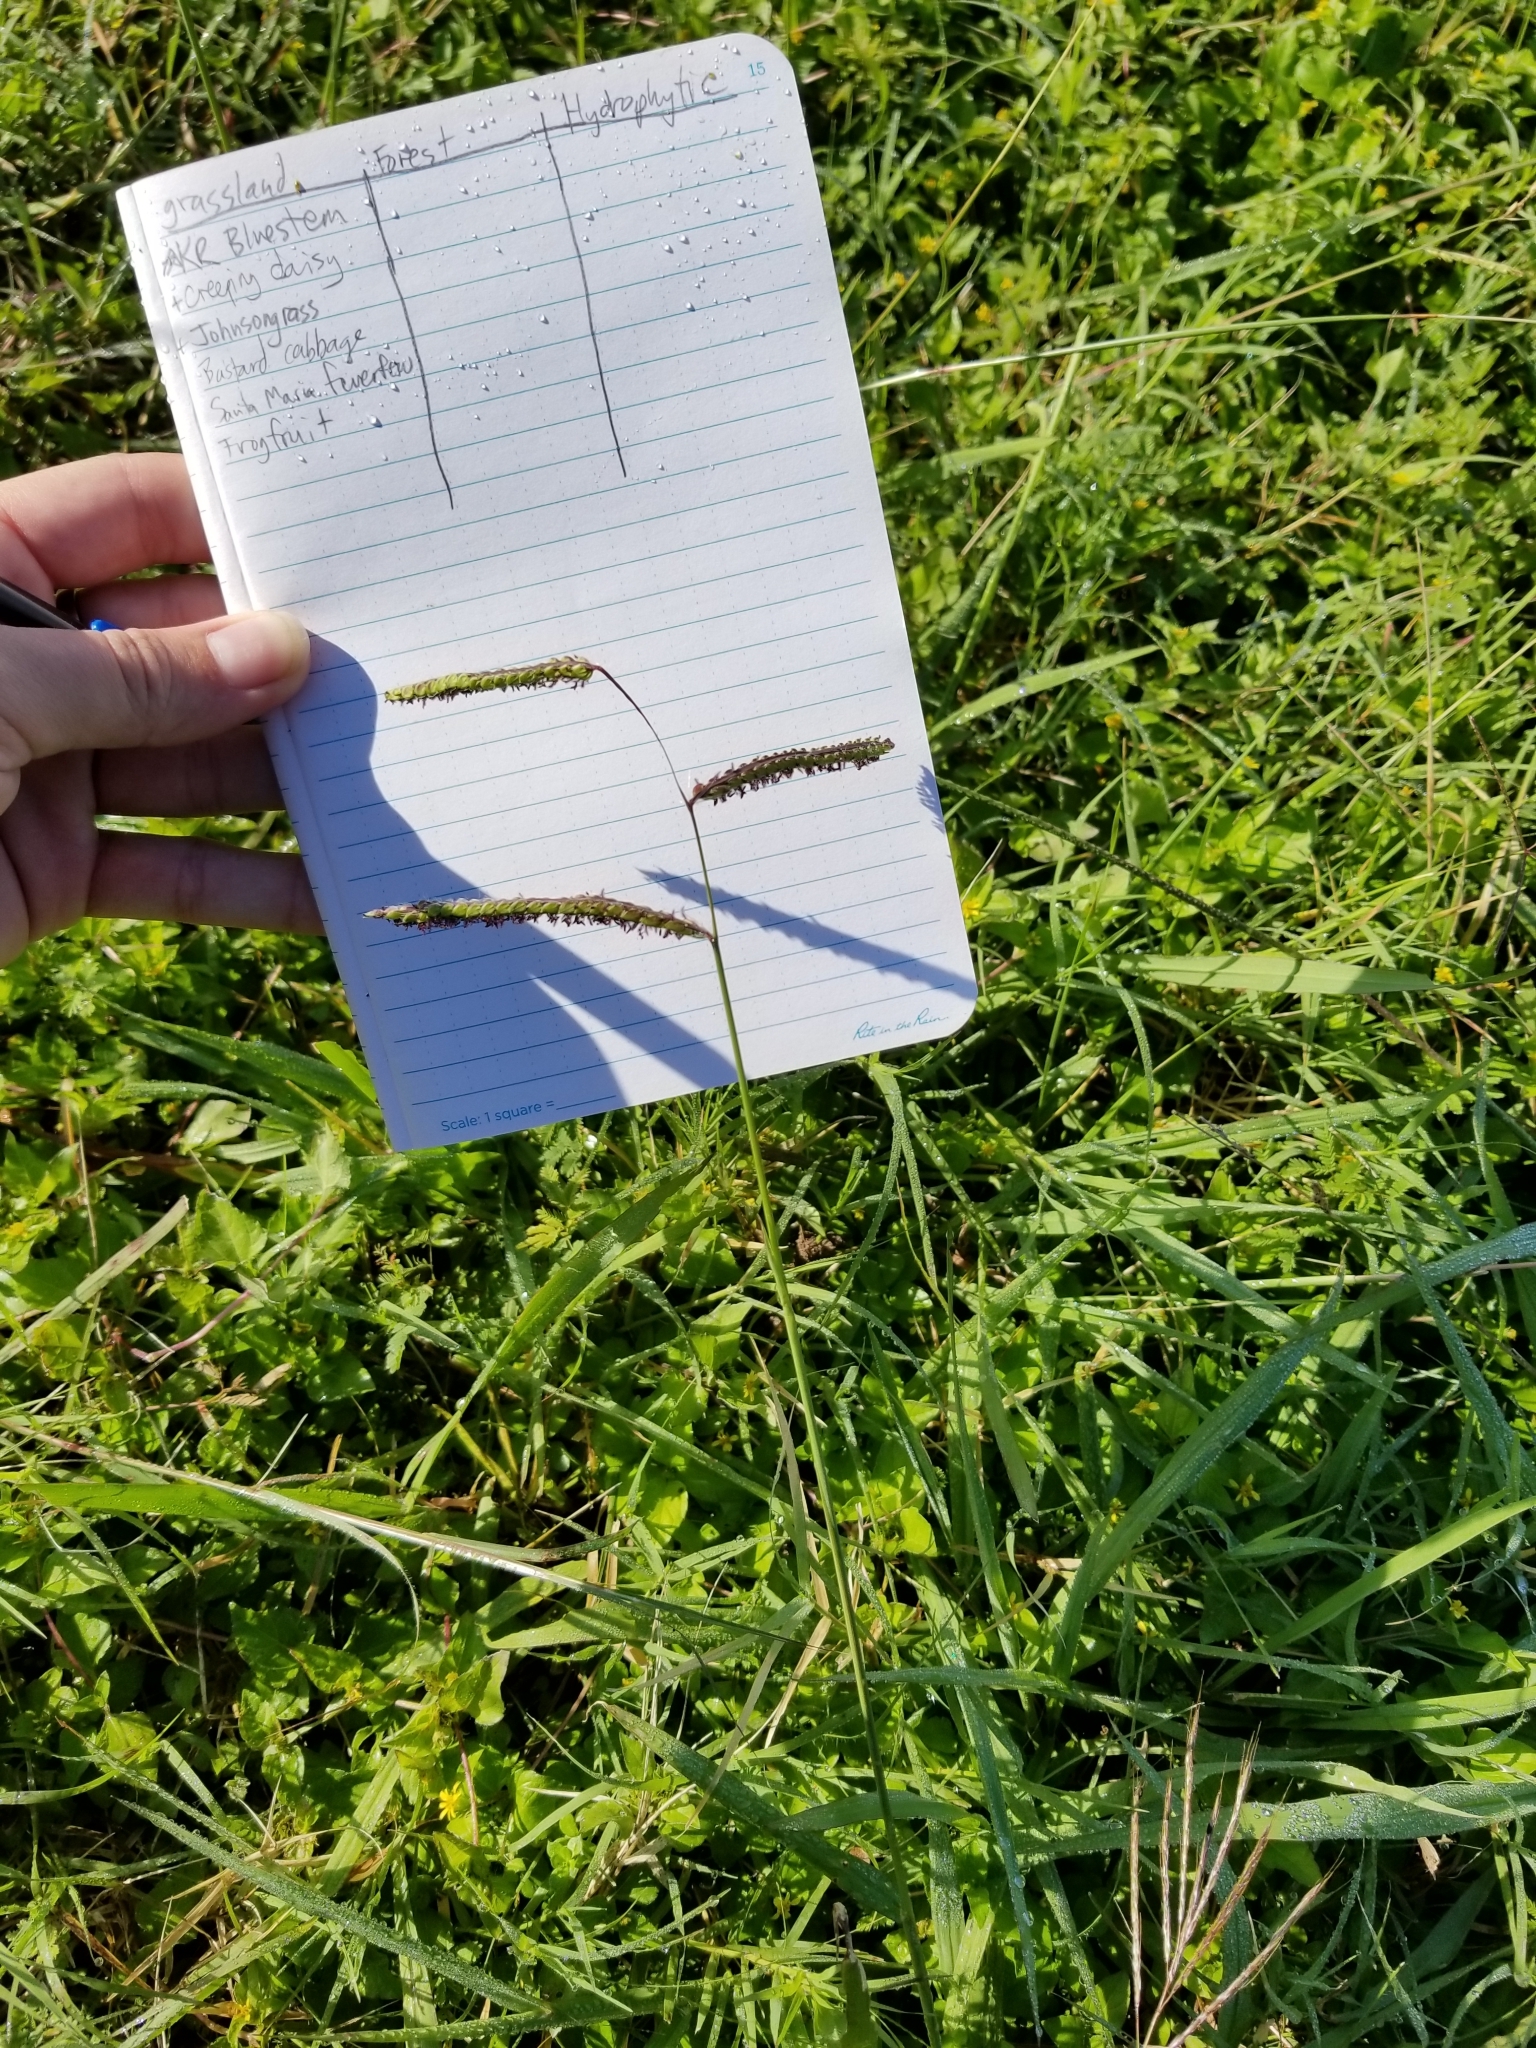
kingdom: Plantae
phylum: Tracheophyta
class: Liliopsida
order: Poales
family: Poaceae
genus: Paspalum
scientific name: Paspalum dilatatum
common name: Dallisgrass
